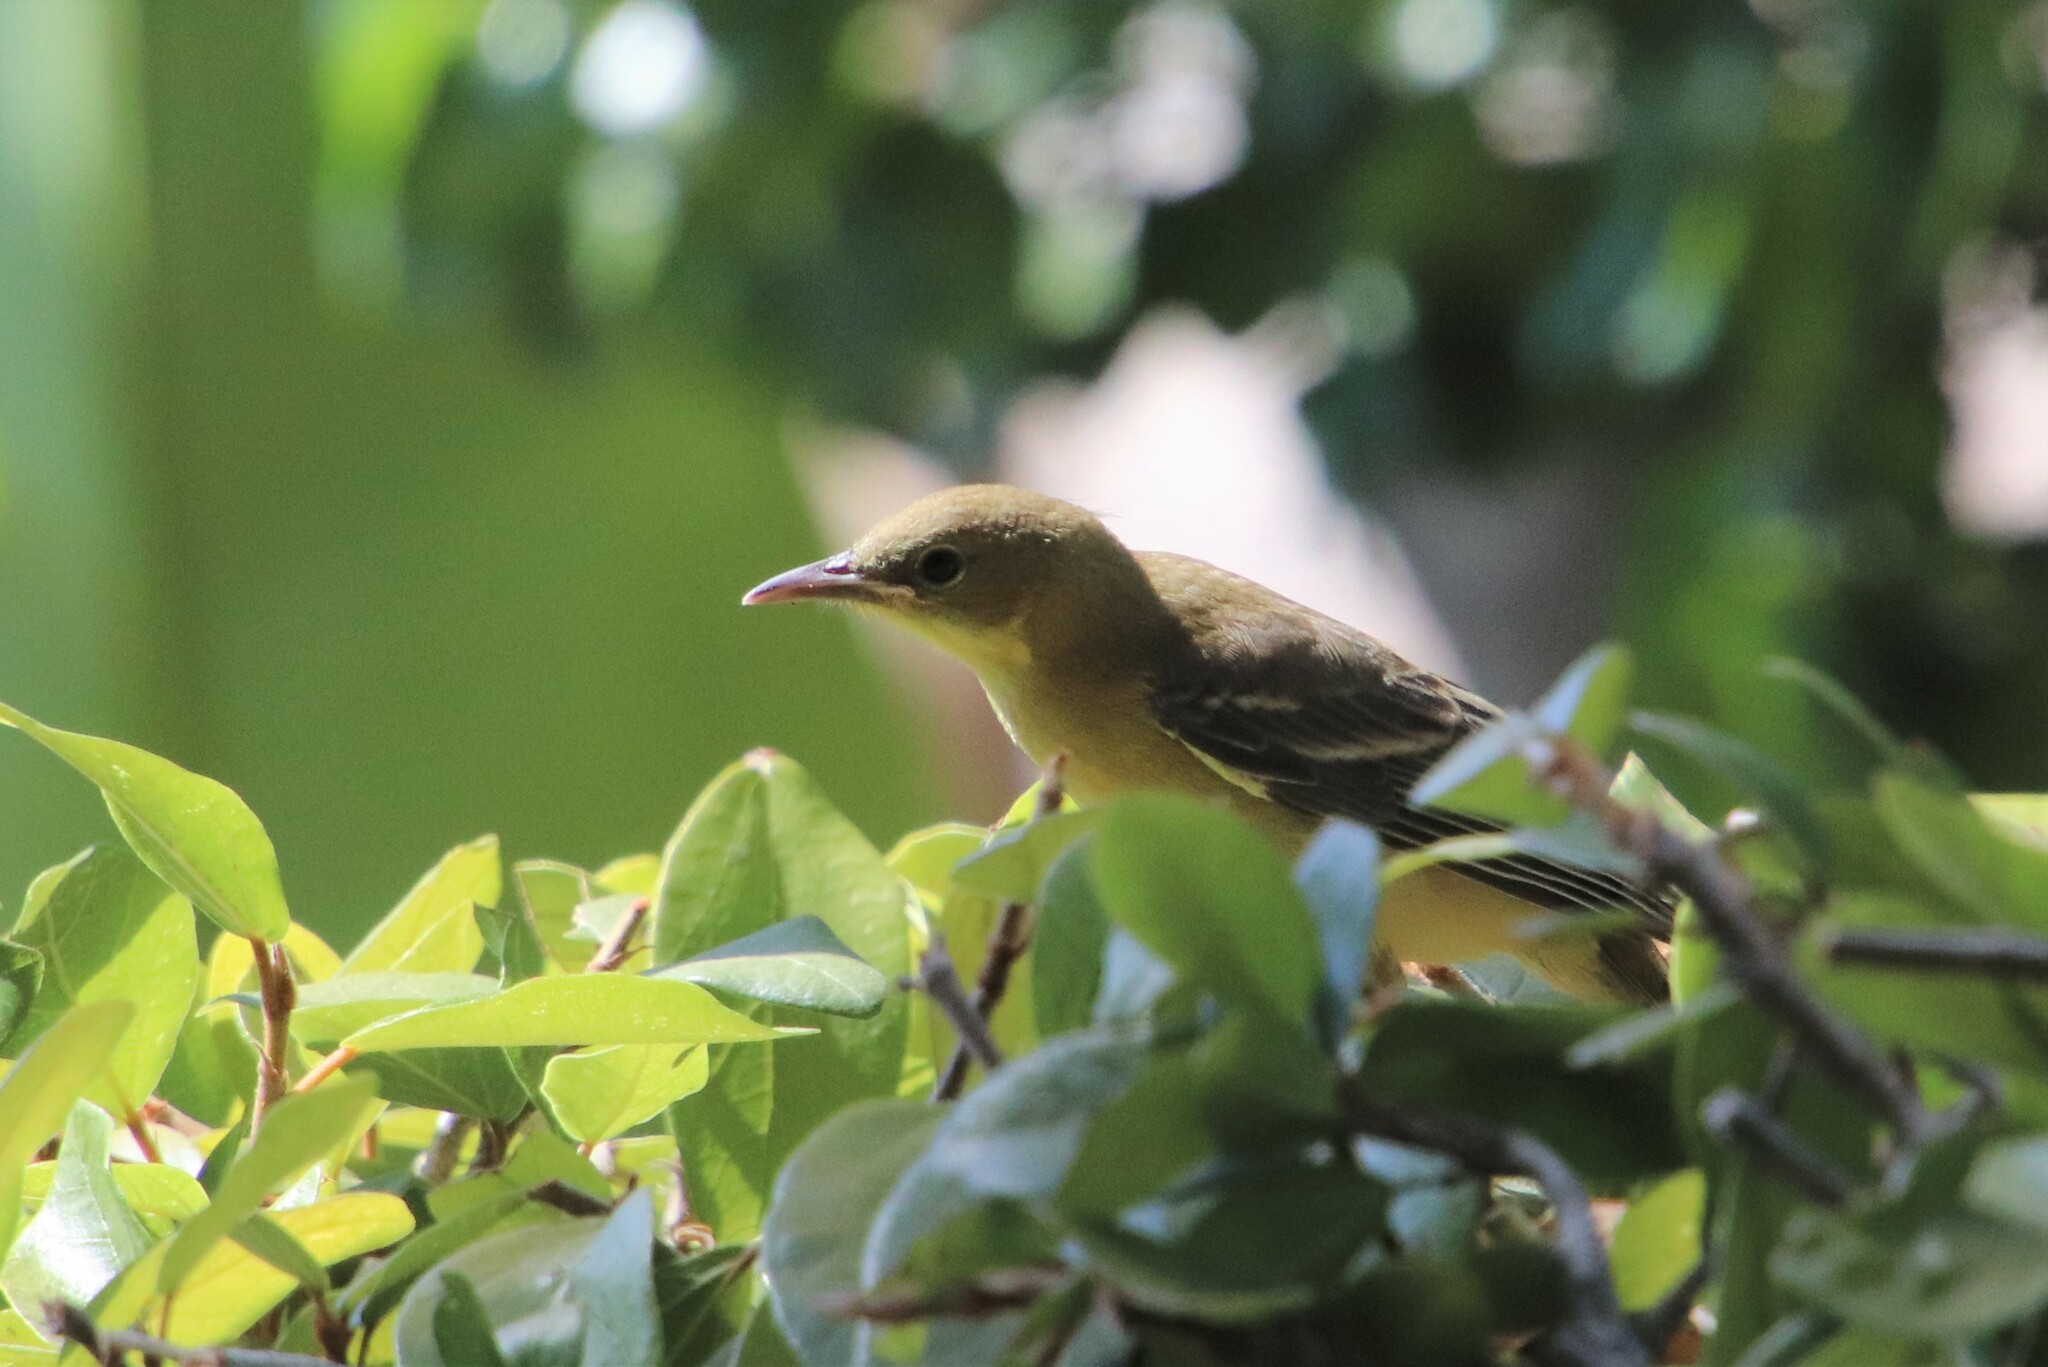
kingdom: Animalia
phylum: Chordata
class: Aves
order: Passeriformes
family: Icteridae
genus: Icterus
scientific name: Icterus cucullatus
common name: Hooded oriole
